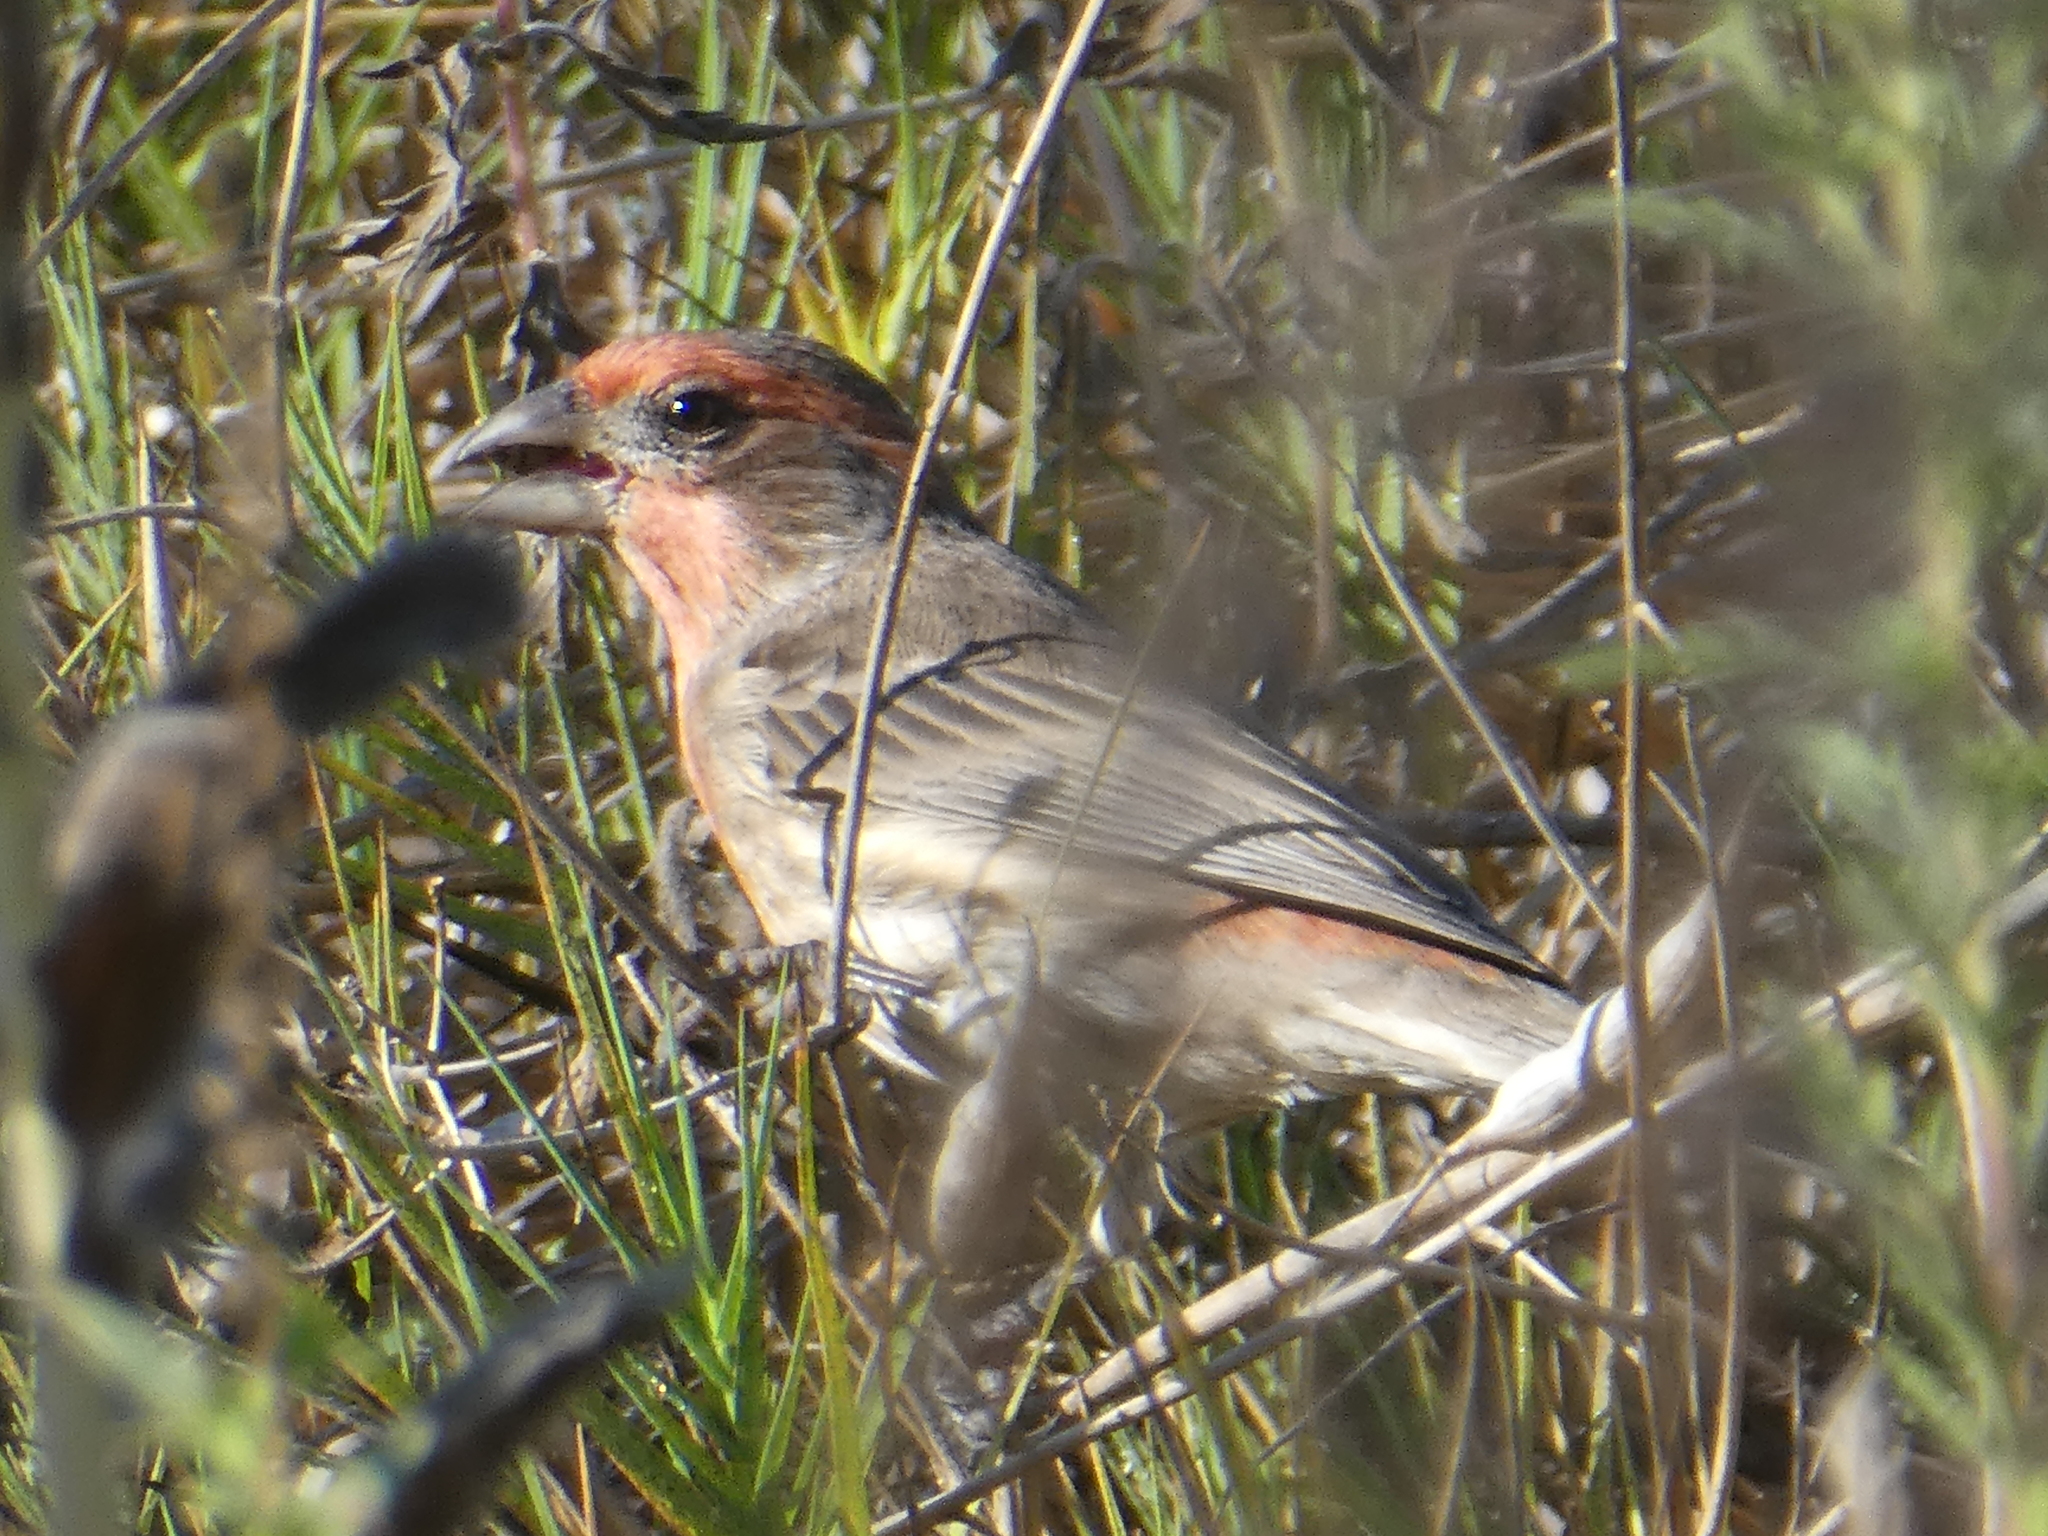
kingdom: Animalia
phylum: Chordata
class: Aves
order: Passeriformes
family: Fringillidae
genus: Haemorhous
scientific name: Haemorhous mexicanus
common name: House finch
